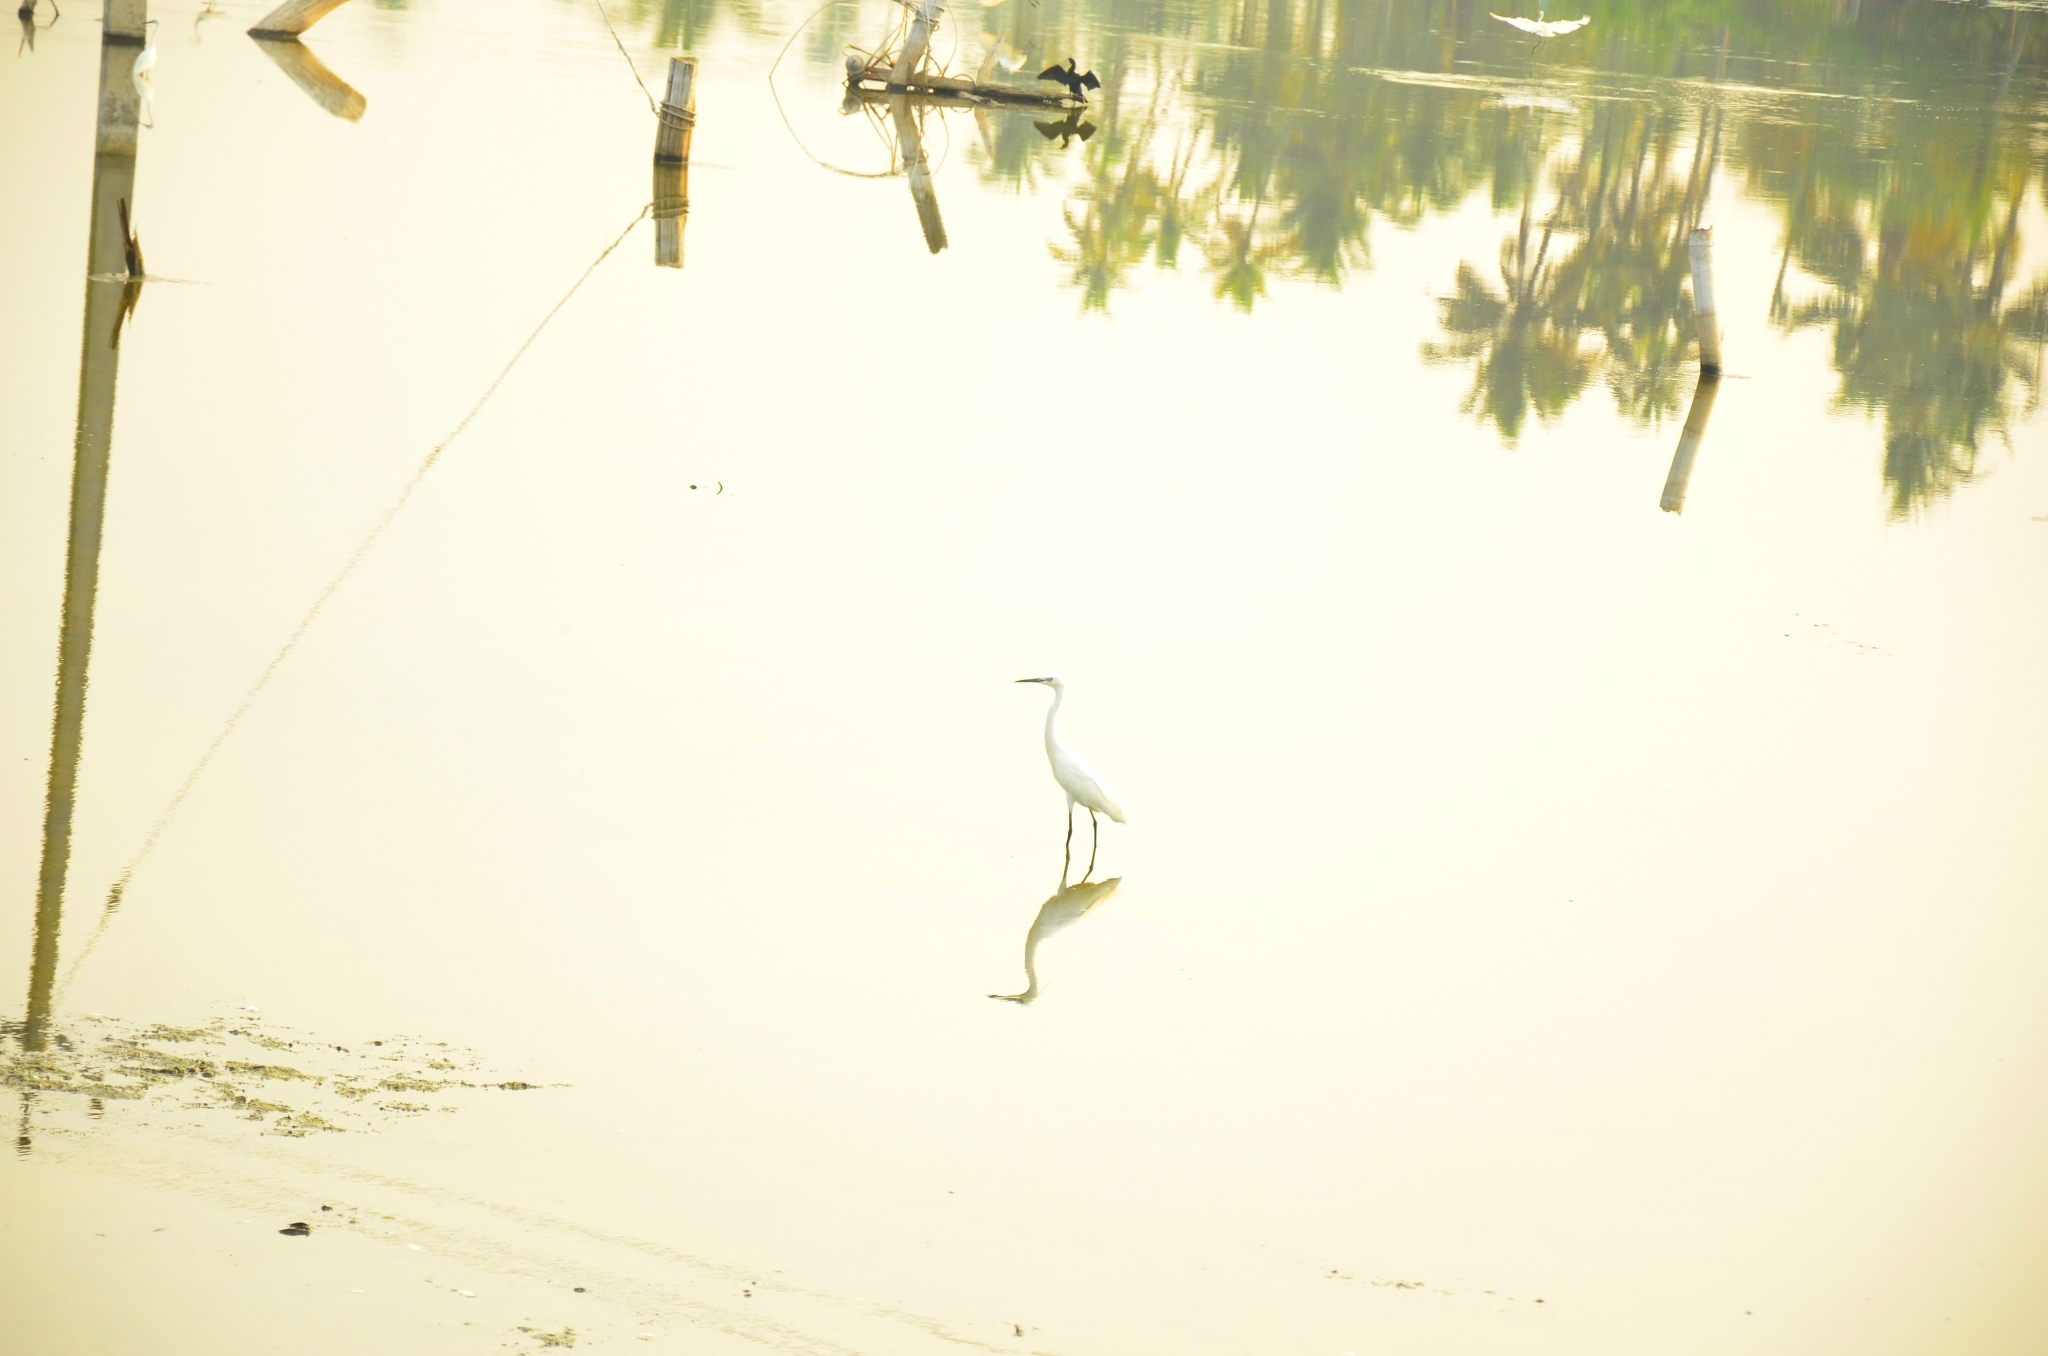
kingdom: Animalia
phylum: Chordata
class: Aves
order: Pelecaniformes
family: Ardeidae
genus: Egretta
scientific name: Egretta garzetta
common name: Little egret
